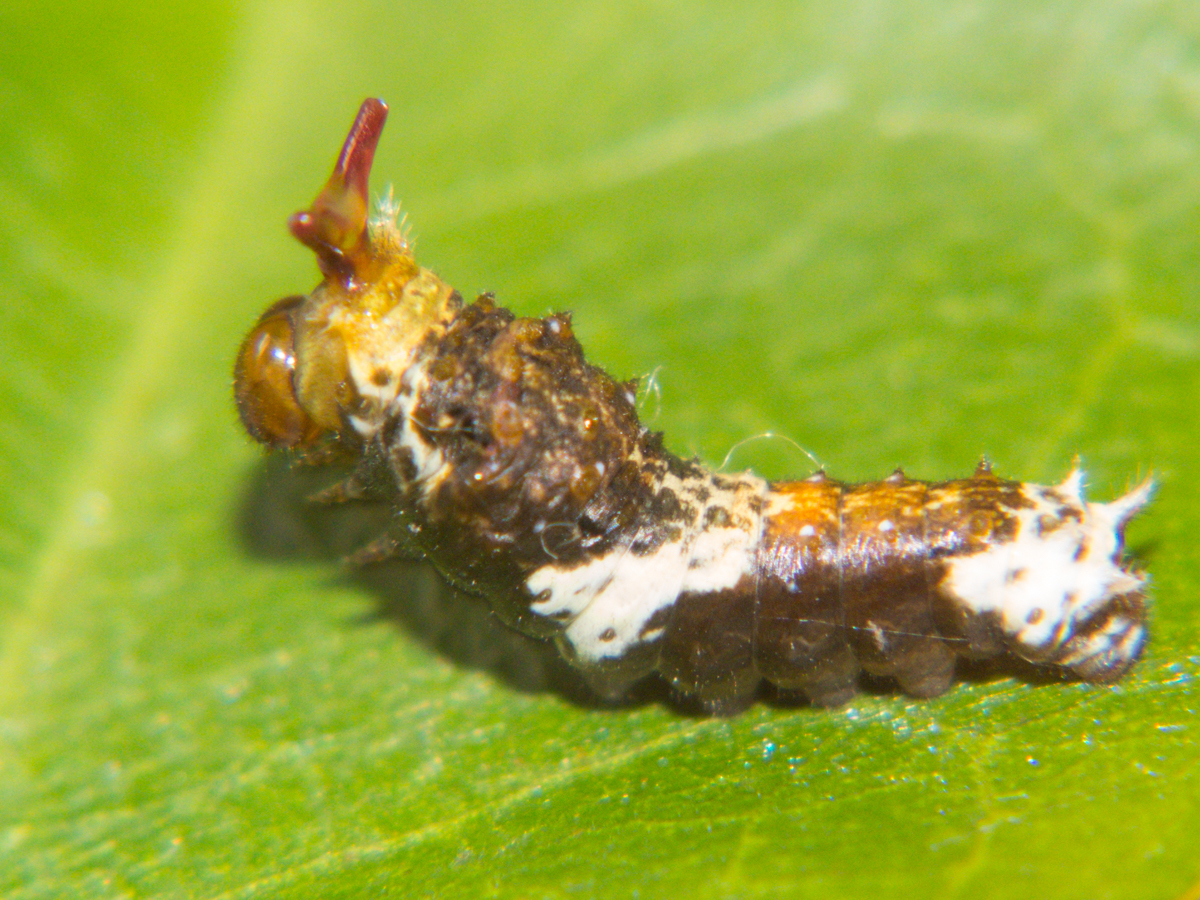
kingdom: Animalia
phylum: Arthropoda
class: Insecta
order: Lepidoptera
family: Papilionidae
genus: Papilio
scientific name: Papilio polytes
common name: Common mormon
